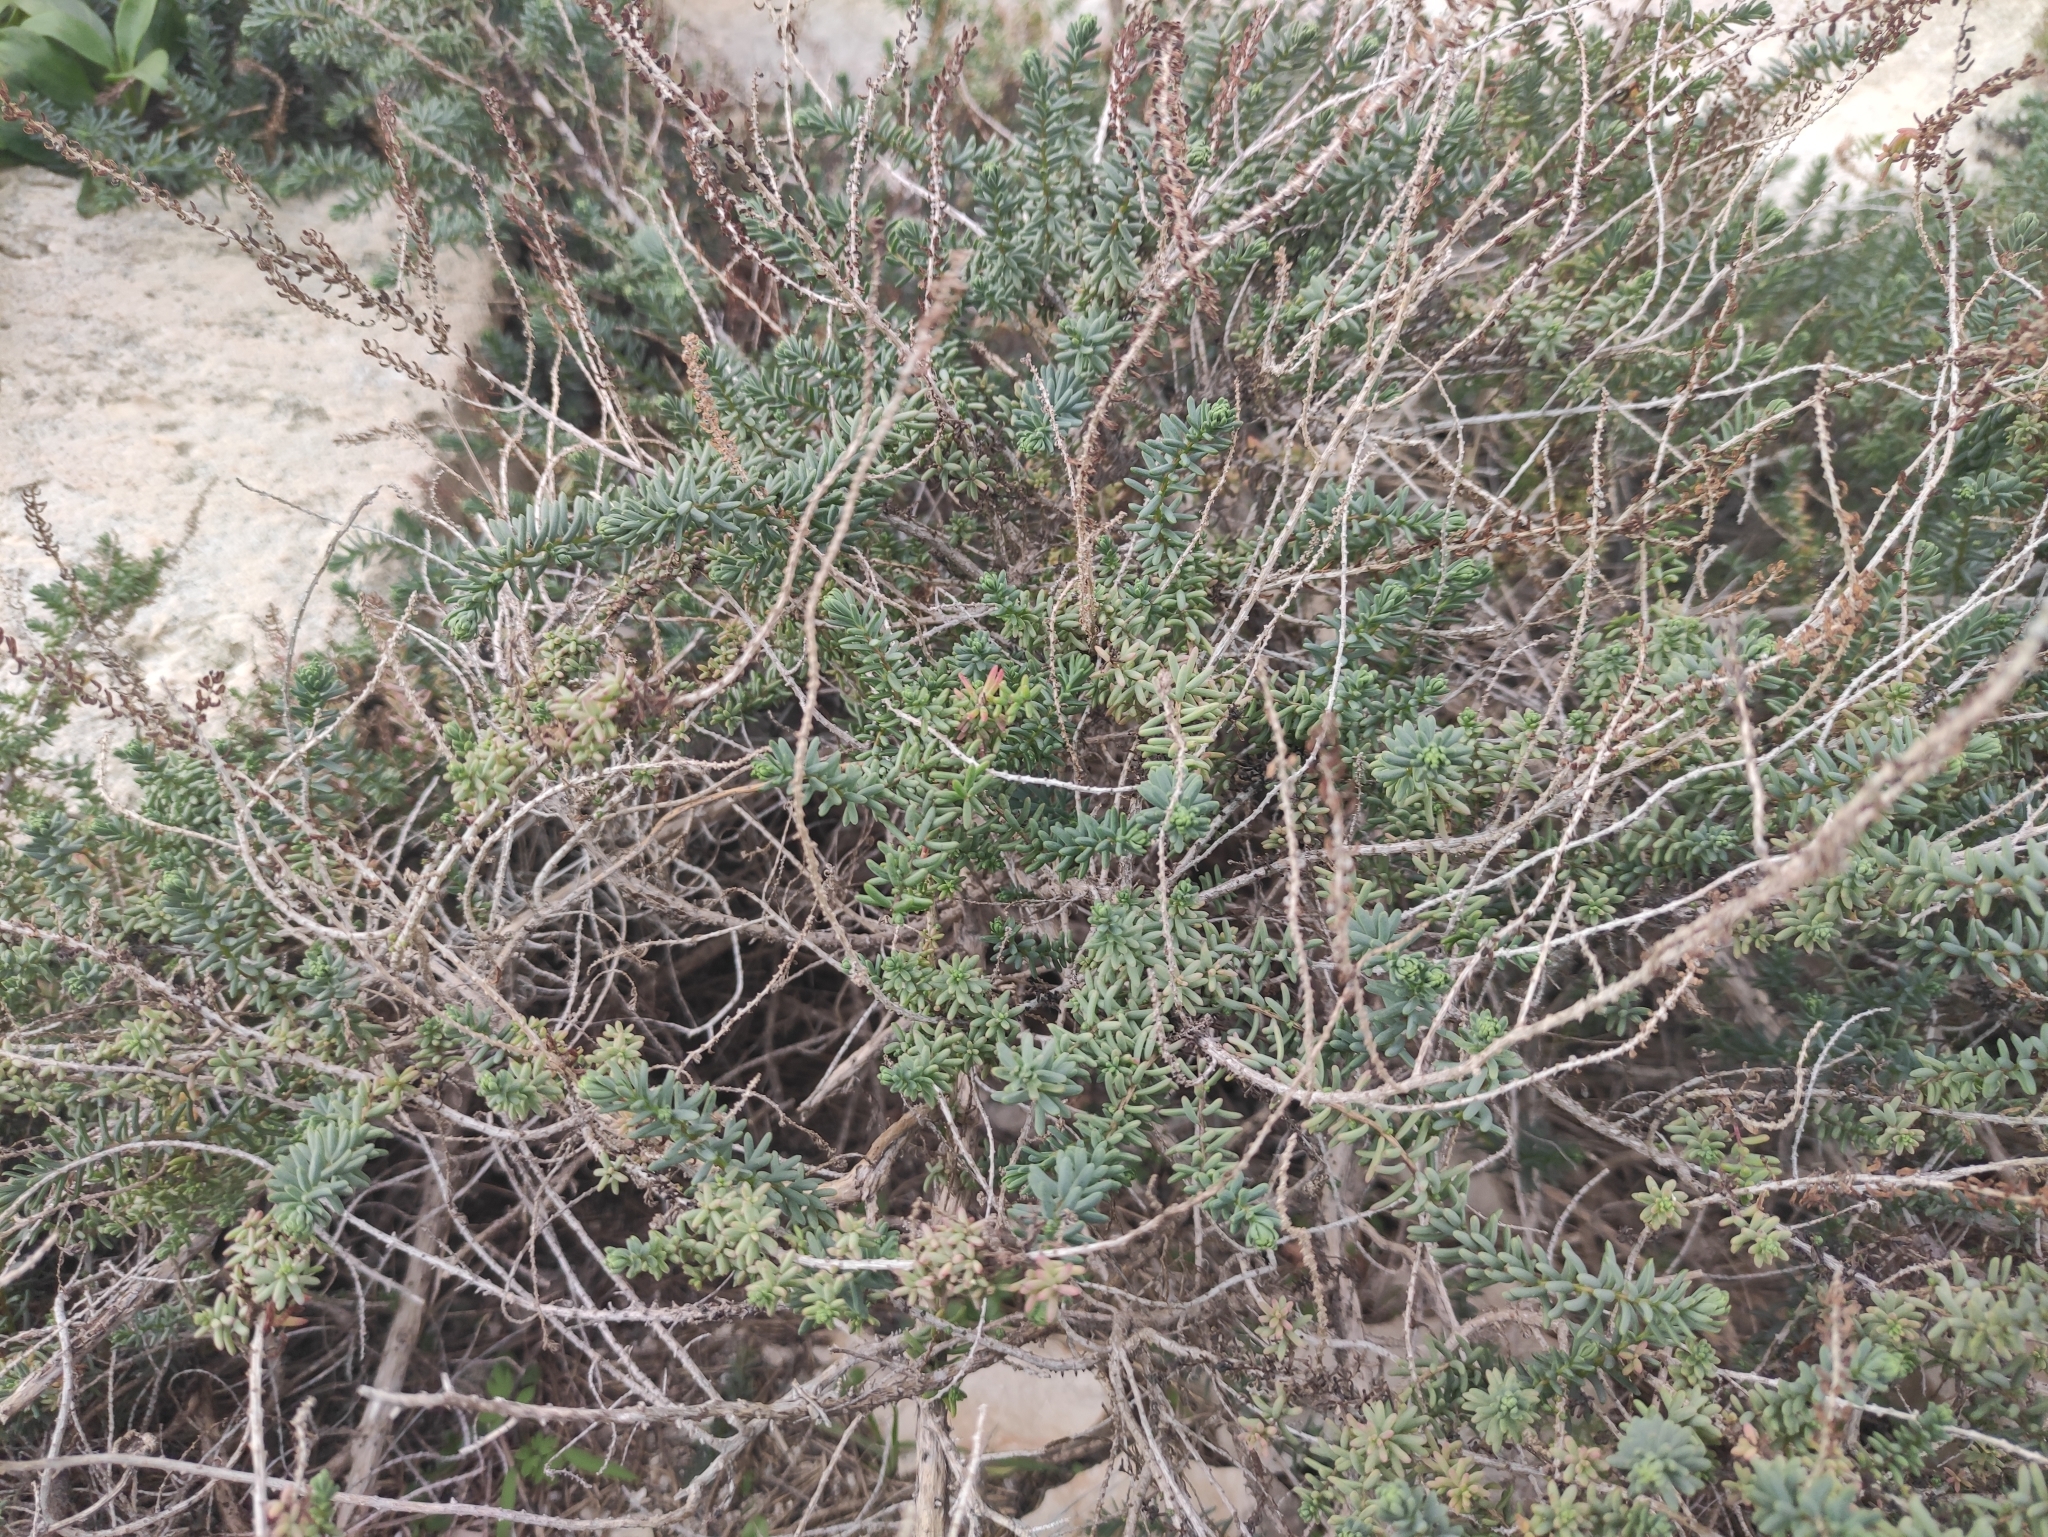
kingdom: Plantae
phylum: Tracheophyta
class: Magnoliopsida
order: Caryophyllales
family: Amaranthaceae
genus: Suaeda
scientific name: Suaeda vera
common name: Shrubby sea-blite
